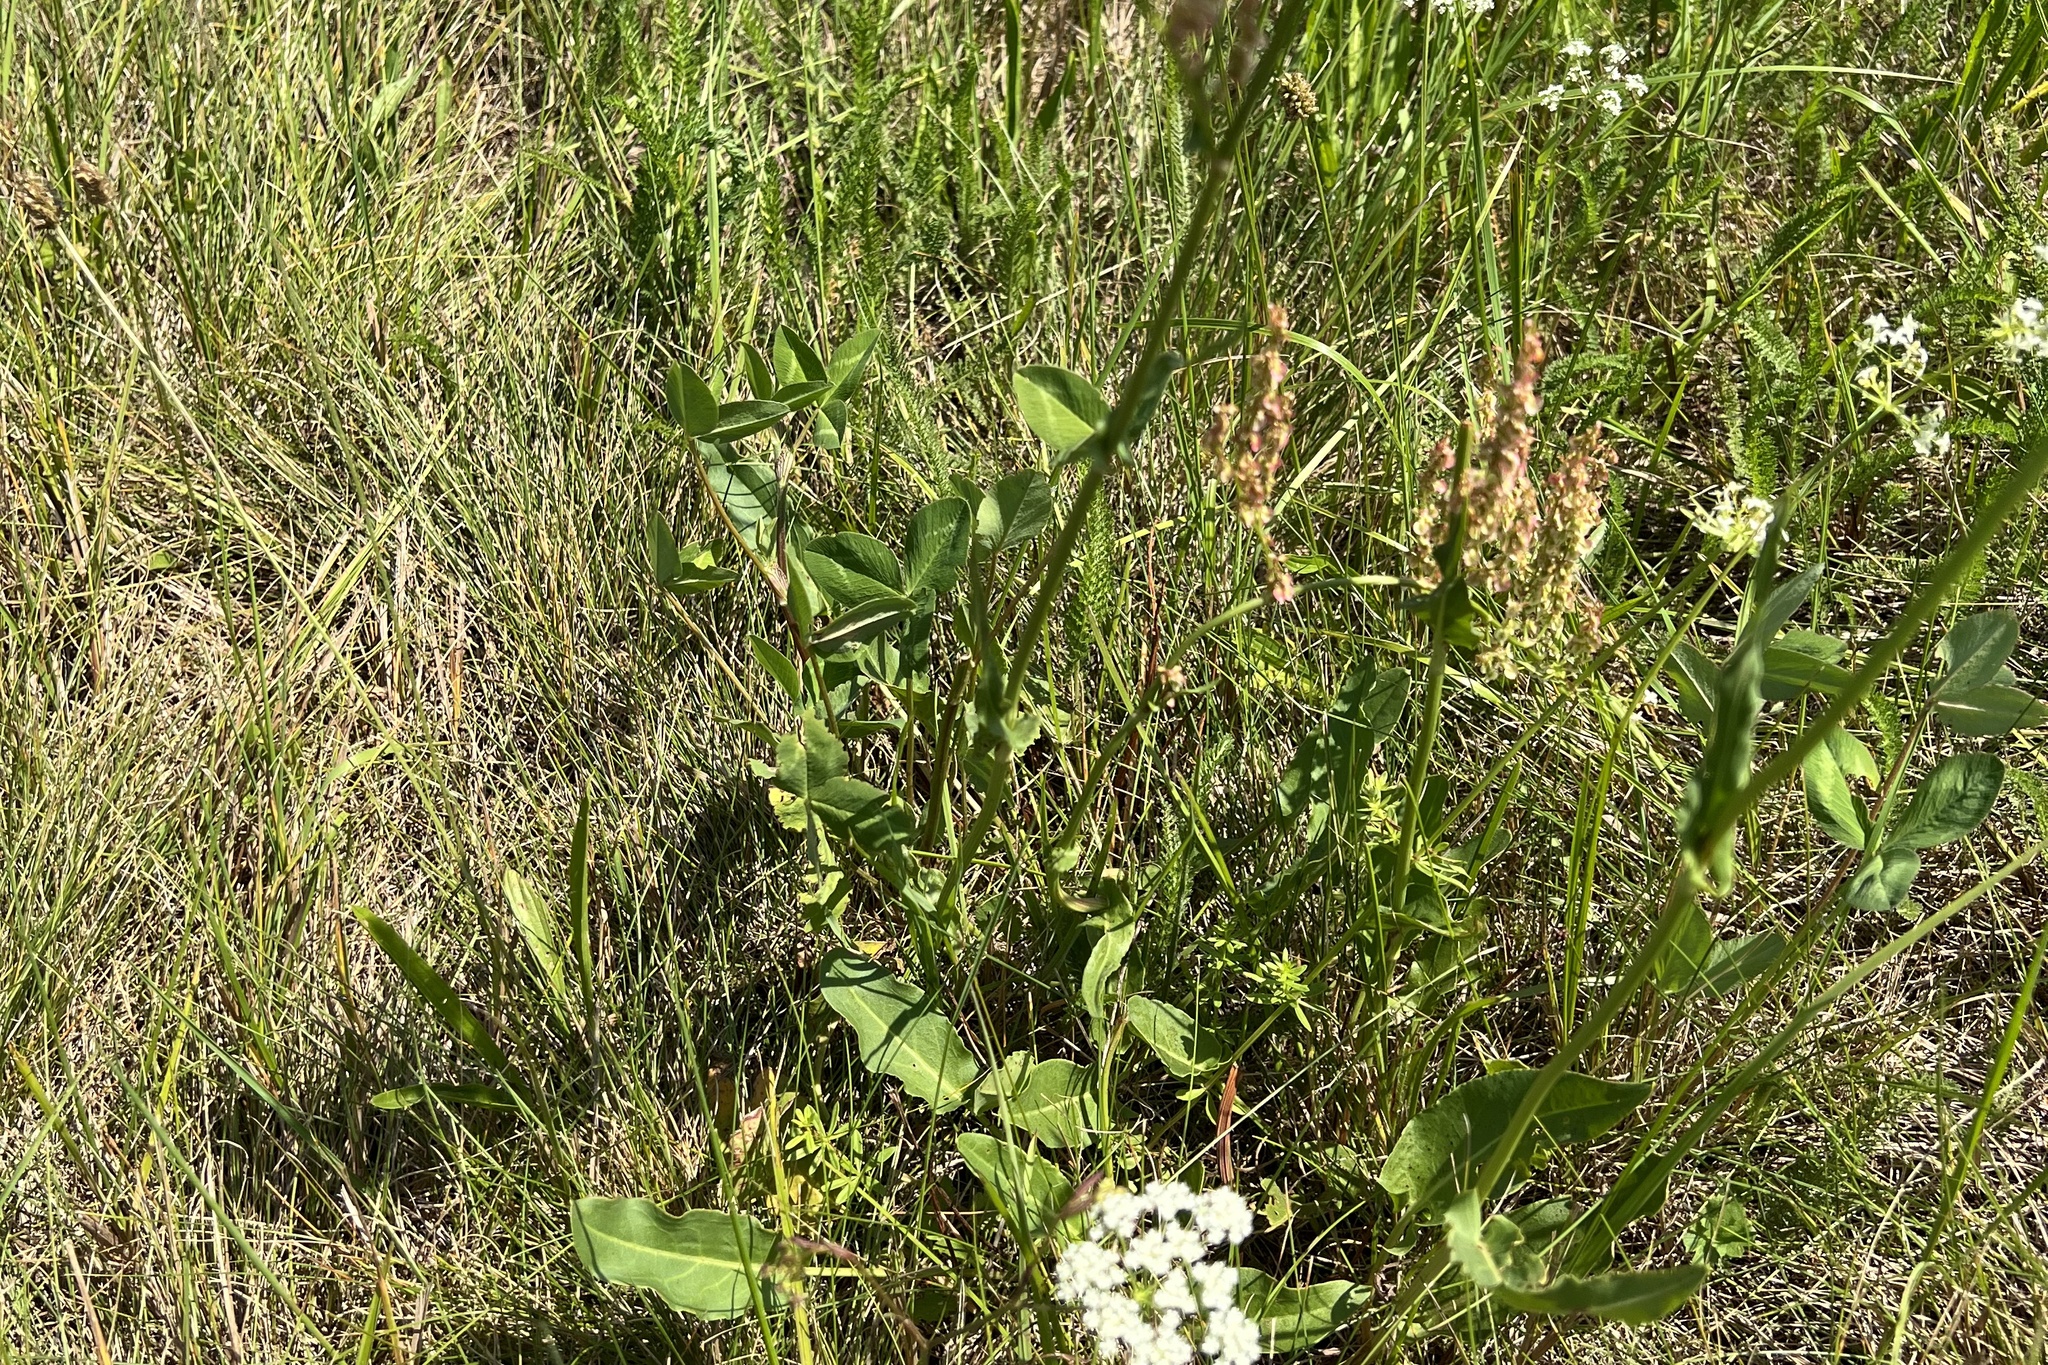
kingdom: Plantae
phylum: Tracheophyta
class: Magnoliopsida
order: Caryophyllales
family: Polygonaceae
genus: Rumex
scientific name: Rumex thyrsiflorus
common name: Garden sorrel
